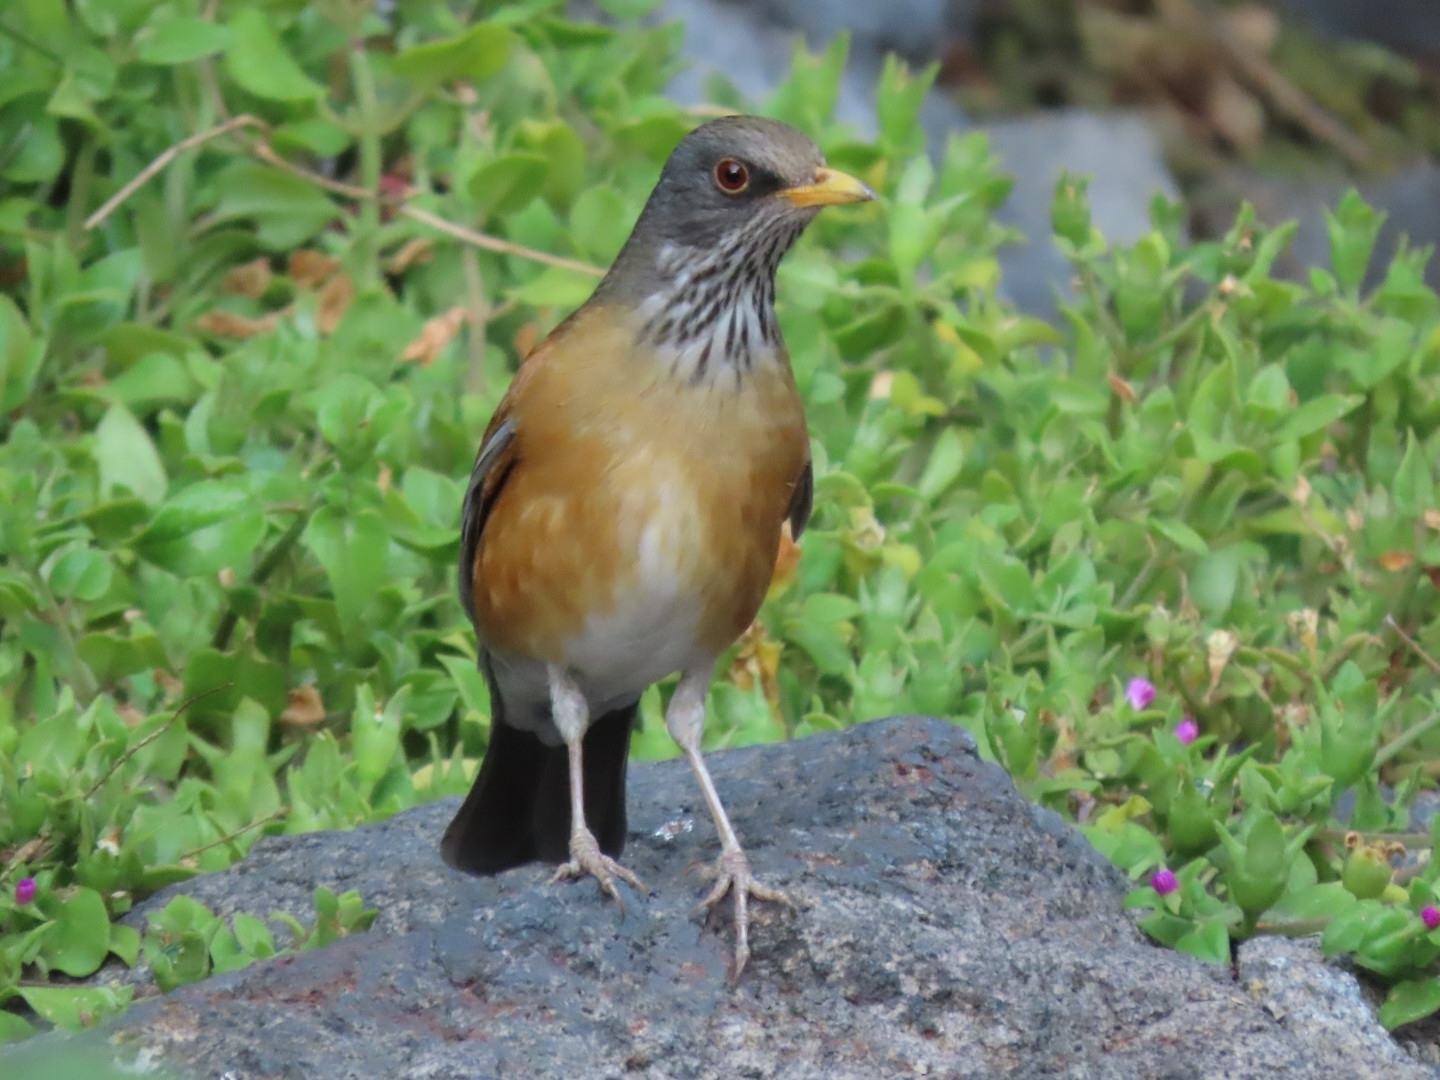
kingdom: Animalia
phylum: Chordata
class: Aves
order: Passeriformes
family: Turdidae
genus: Turdus
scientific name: Turdus rufopalliatus
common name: Rufous-backed robin
